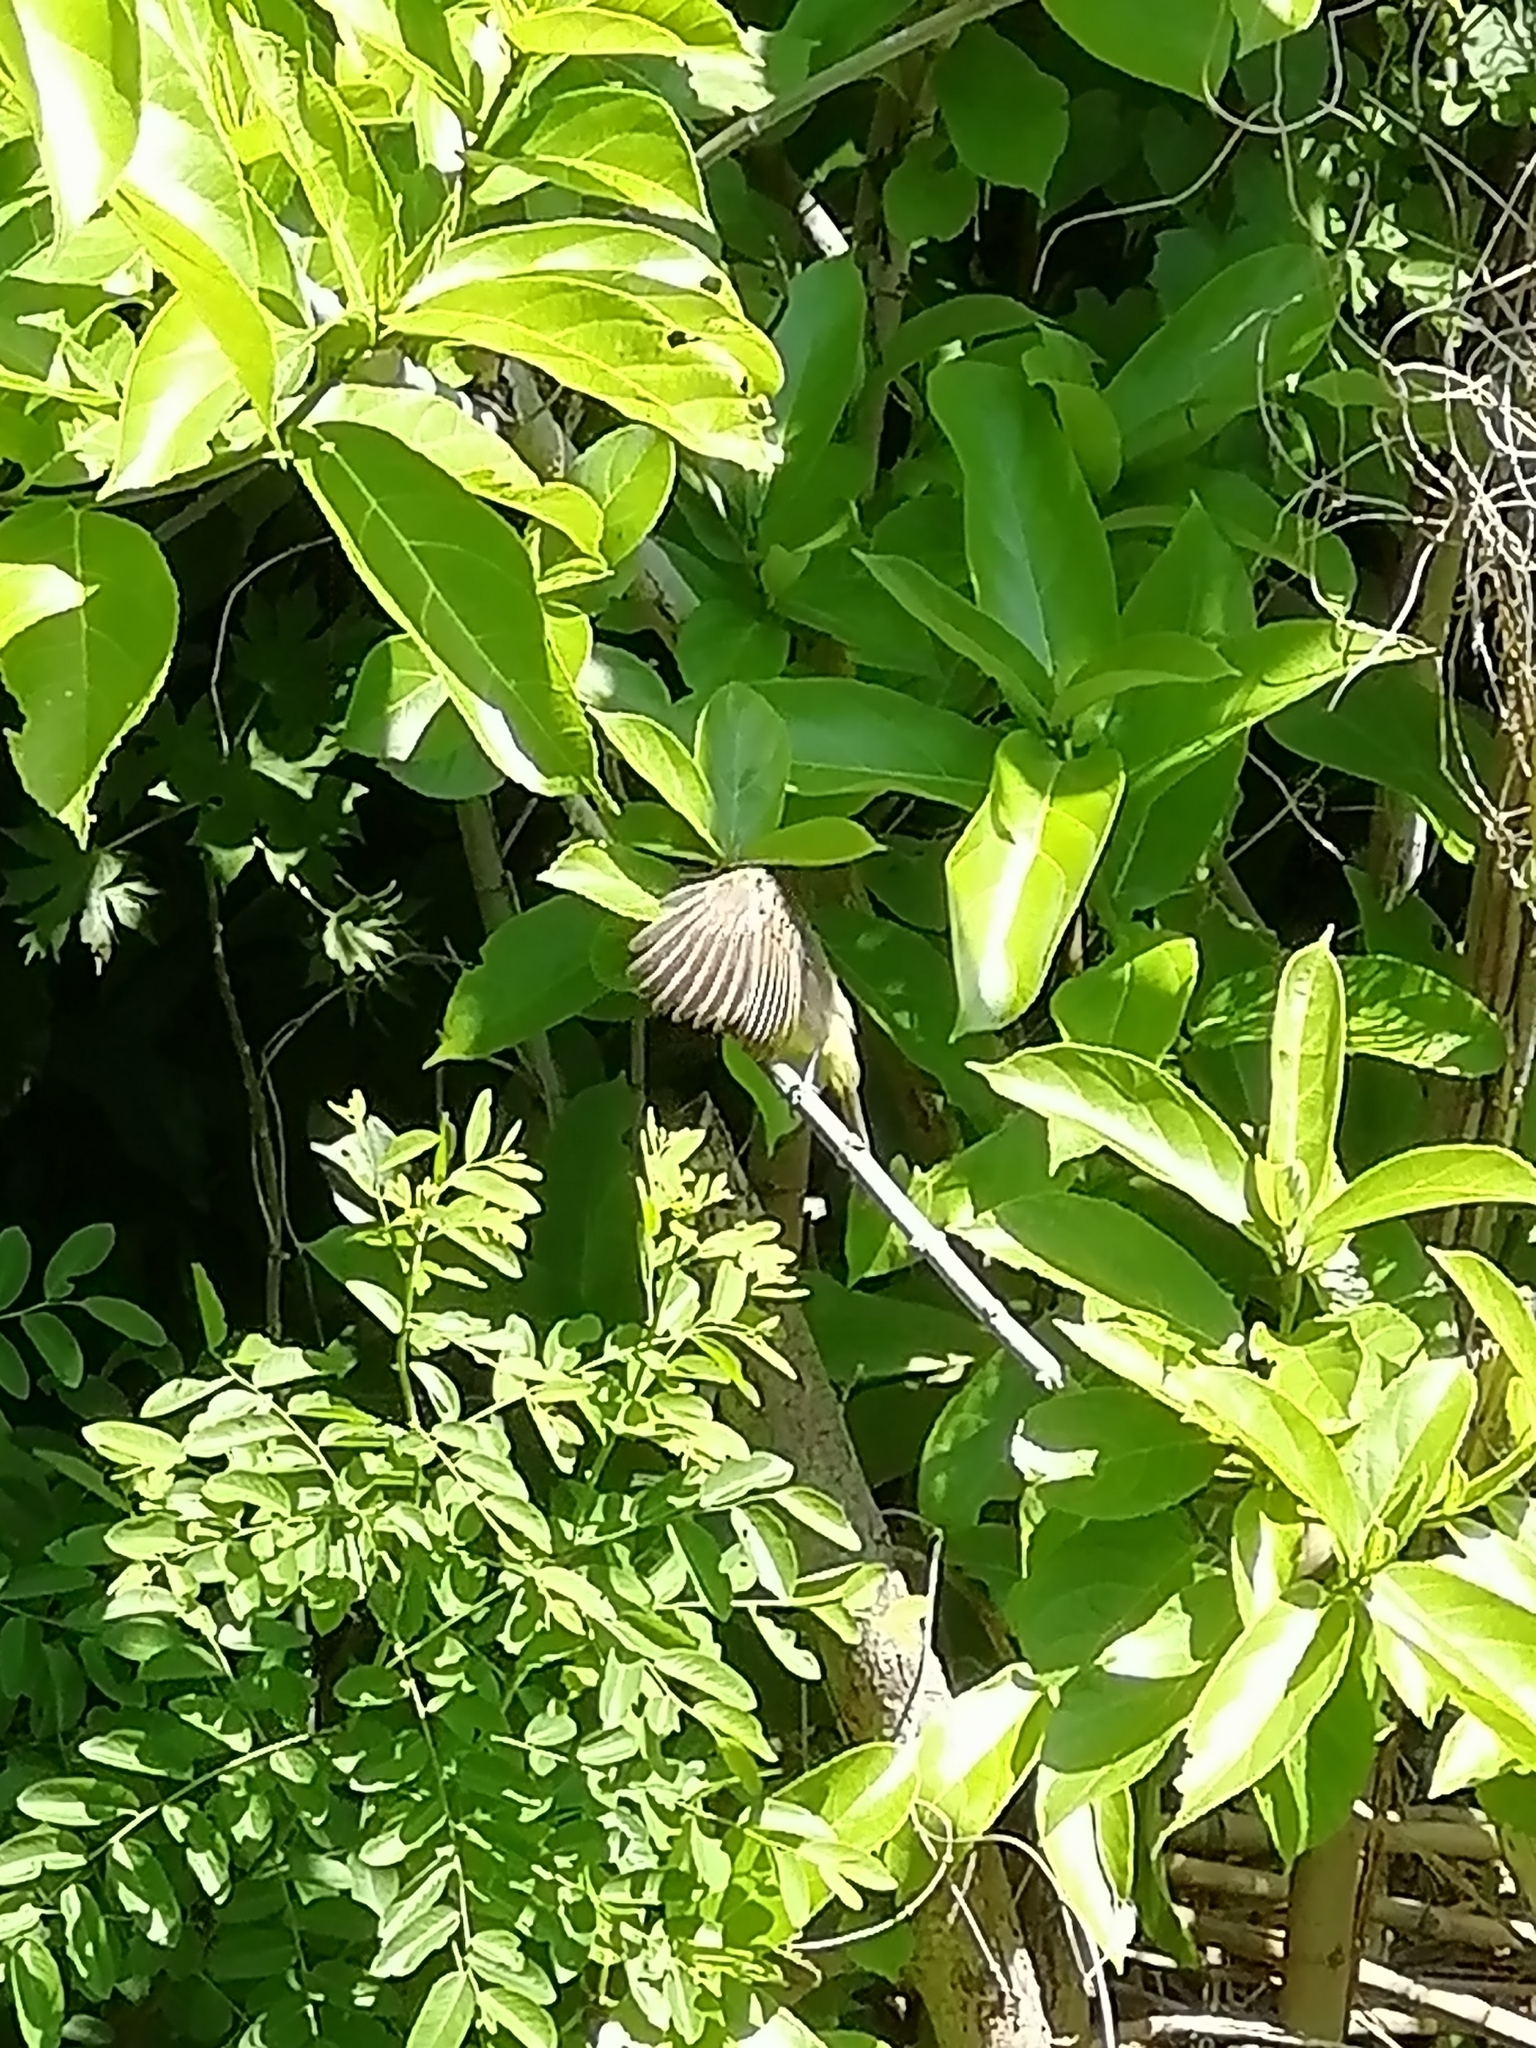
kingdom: Animalia
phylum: Chordata
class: Aves
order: Passeriformes
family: Pycnonotidae
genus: Pycnonotus
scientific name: Pycnonotus goiavier
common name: Yellow-vented bulbul
